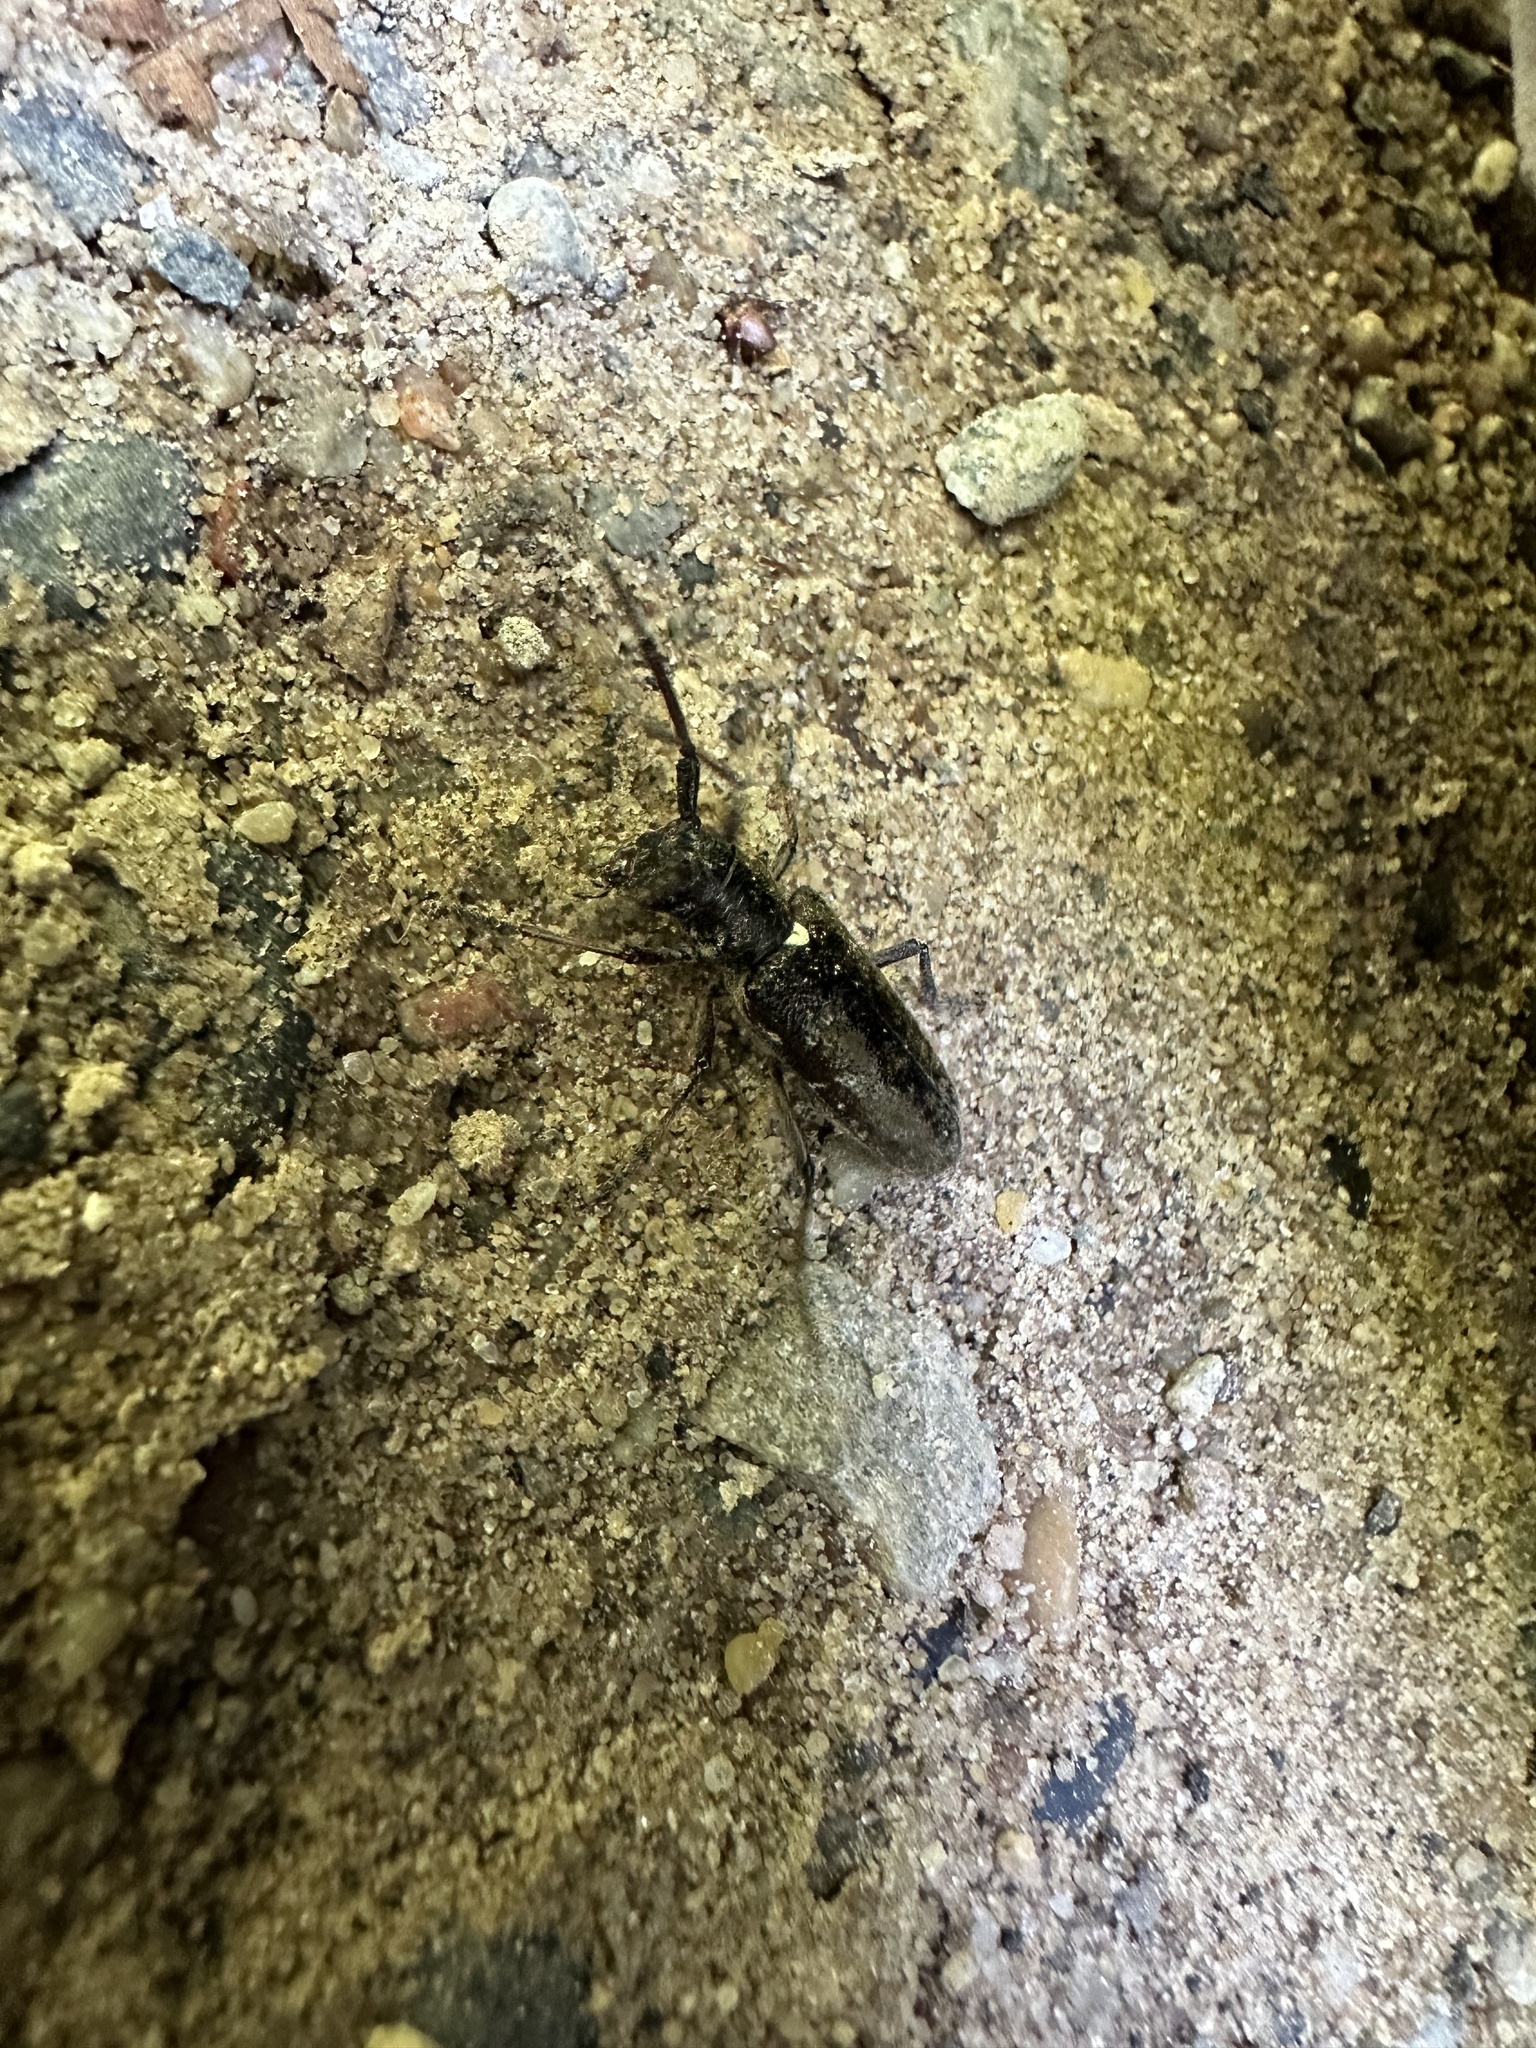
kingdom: Animalia
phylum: Arthropoda
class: Insecta
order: Coleoptera
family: Cerambycidae
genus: Monochamus
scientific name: Monochamus scutellatus
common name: White-spotted sawyer beetle
